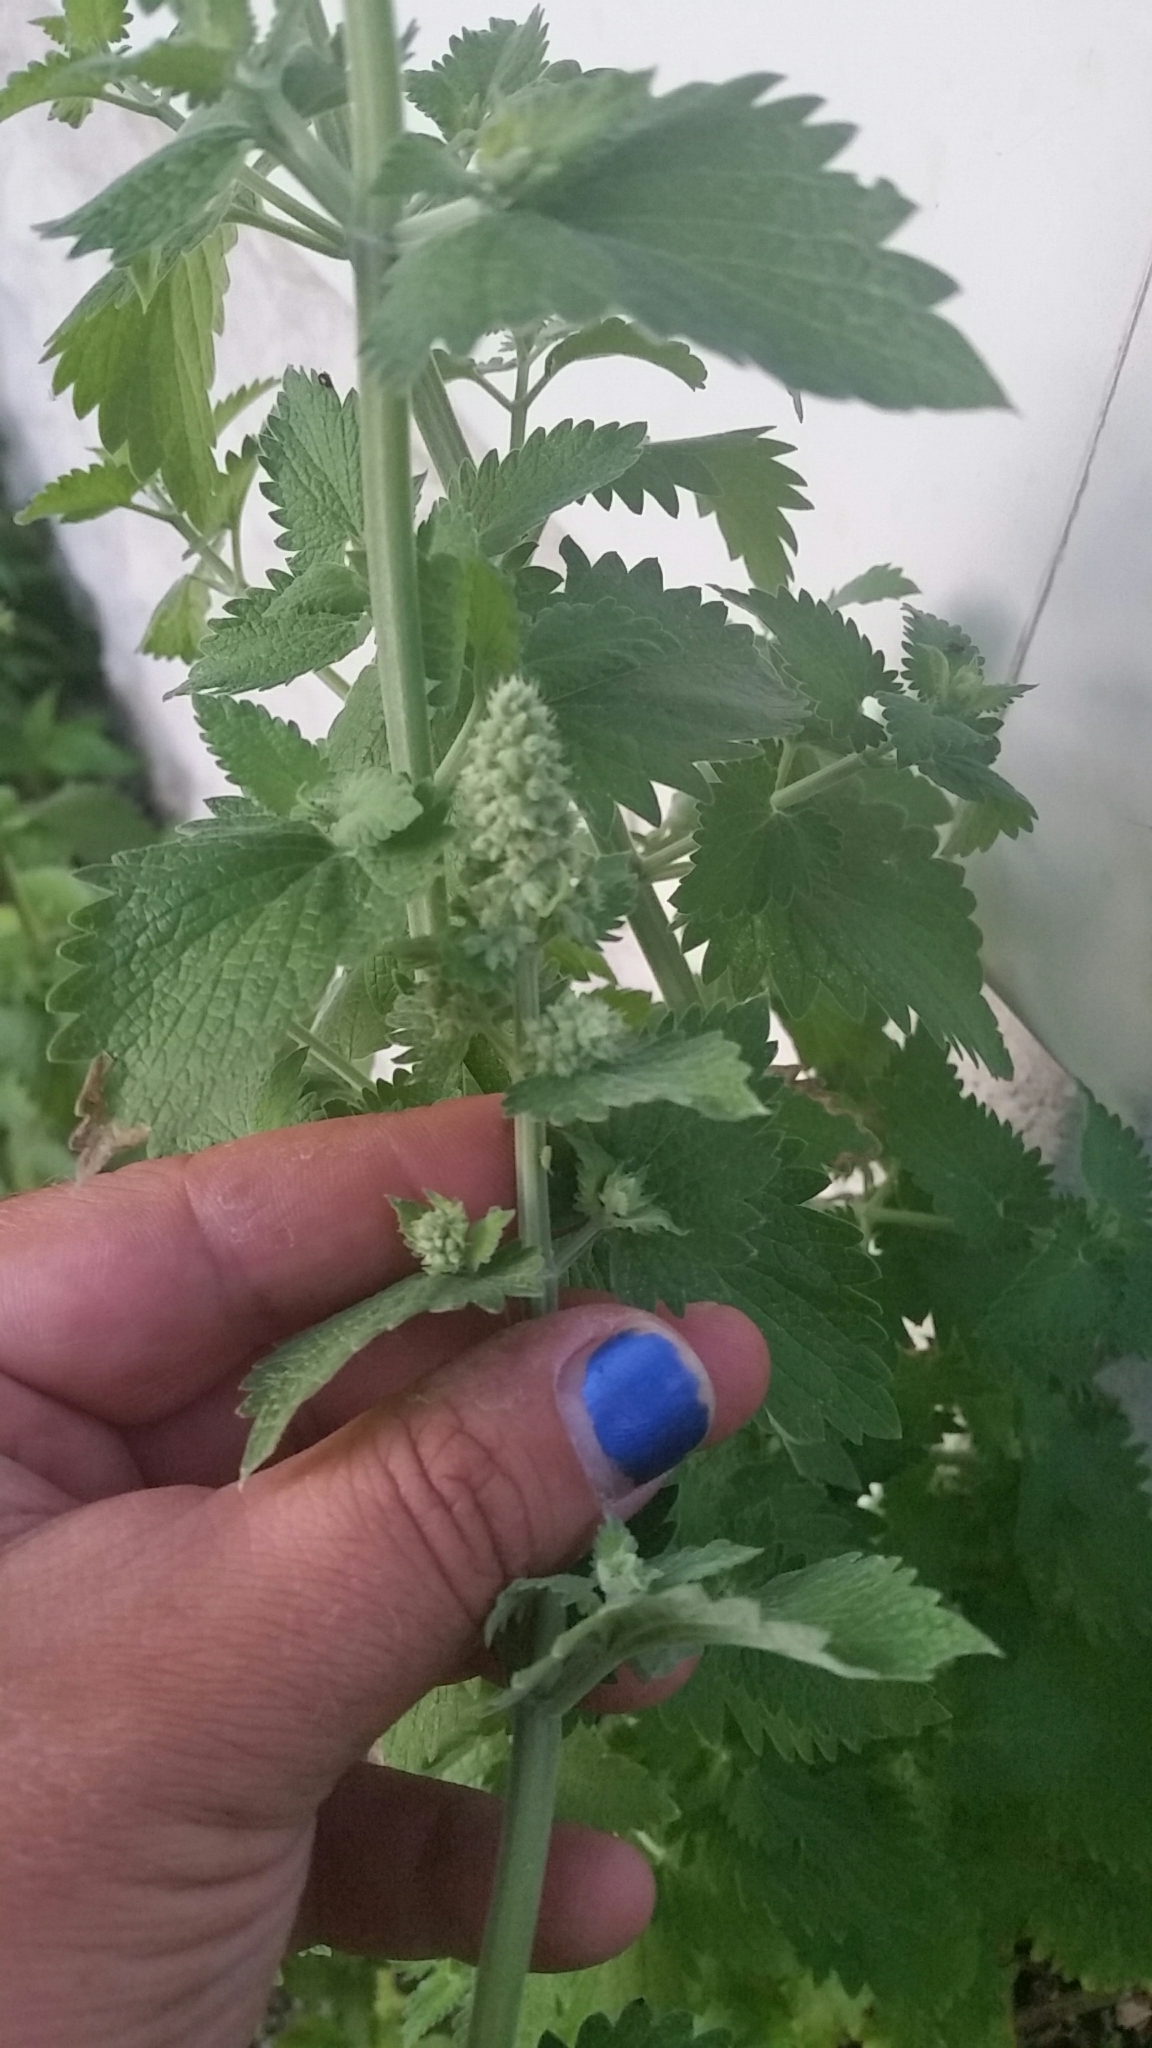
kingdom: Plantae
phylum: Tracheophyta
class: Magnoliopsida
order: Lamiales
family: Lamiaceae
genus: Nepeta
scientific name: Nepeta cataria
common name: Catnip
